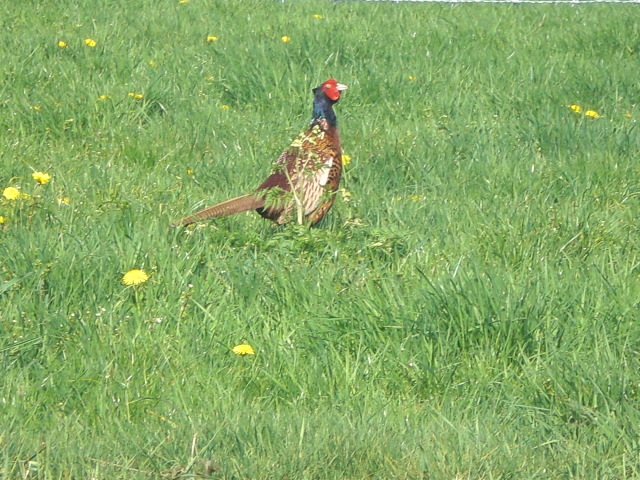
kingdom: Animalia
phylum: Chordata
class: Aves
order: Galliformes
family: Phasianidae
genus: Phasianus
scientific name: Phasianus colchicus
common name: Common pheasant
